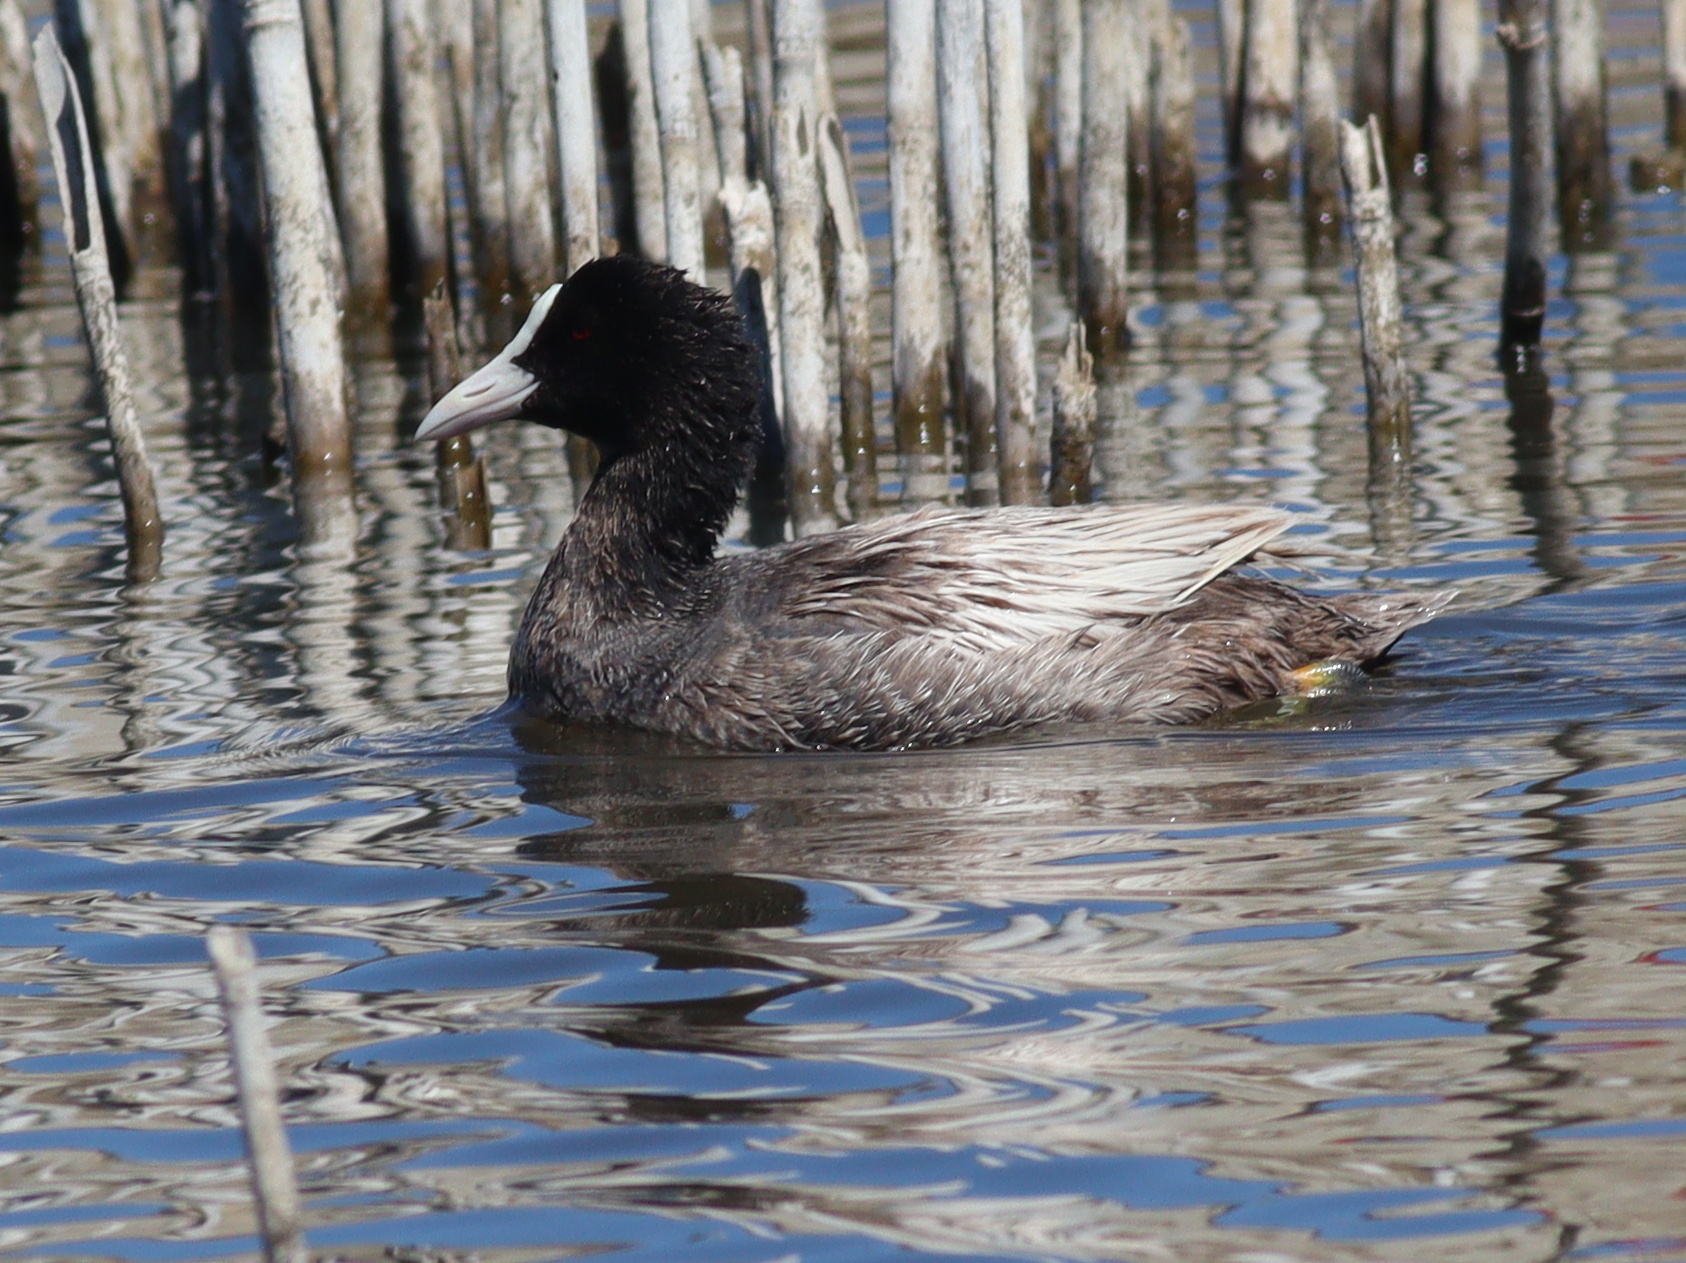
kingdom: Animalia
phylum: Chordata
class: Aves
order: Gruiformes
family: Rallidae
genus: Fulica
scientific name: Fulica atra
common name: Eurasian coot
